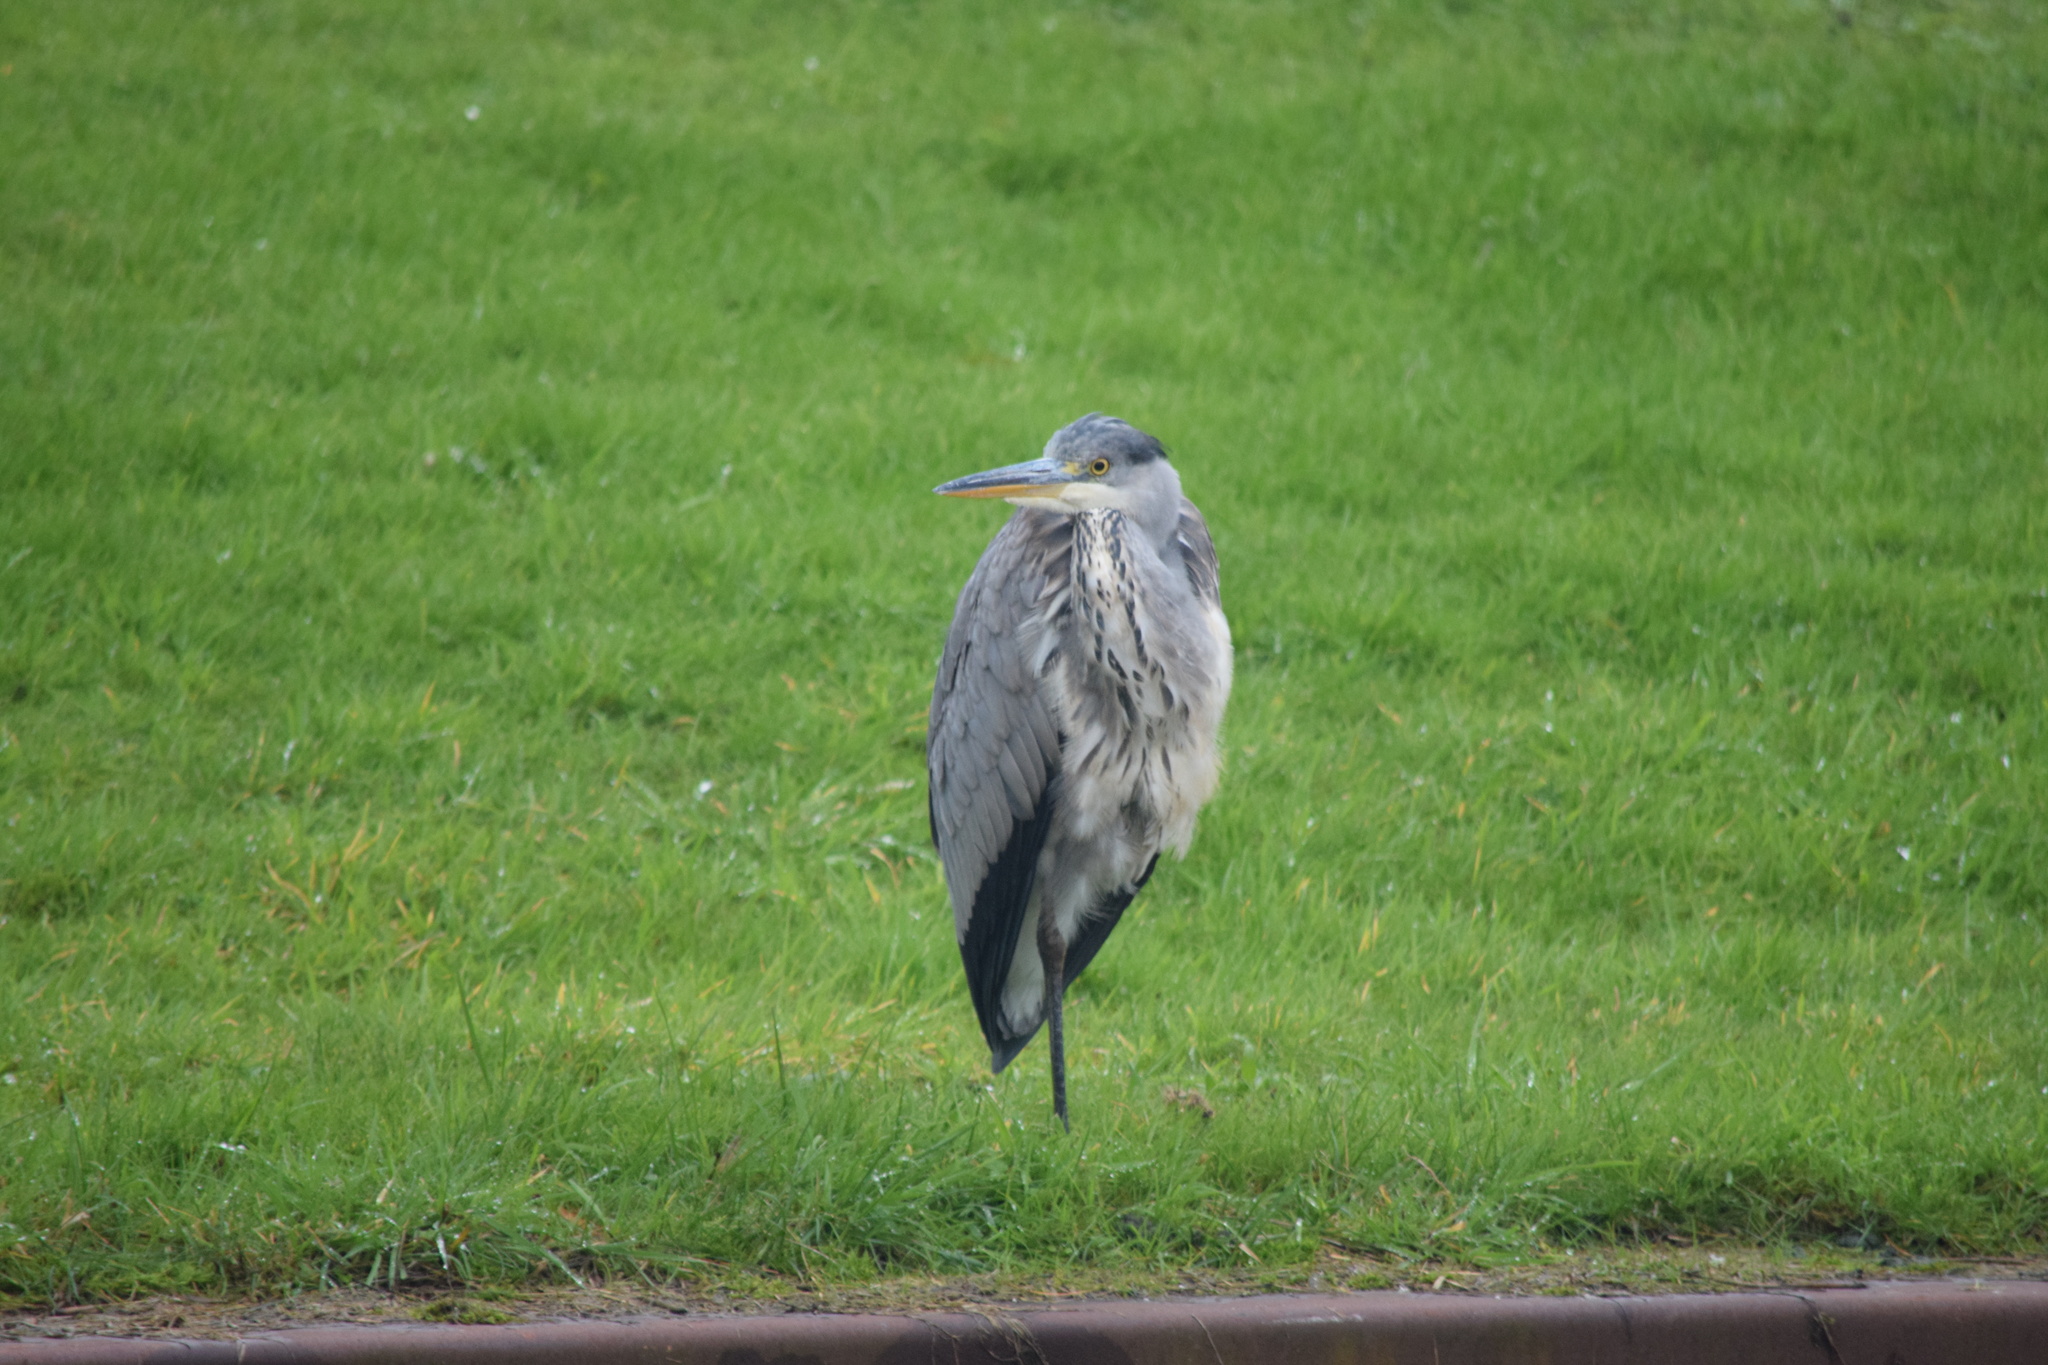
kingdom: Animalia
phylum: Chordata
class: Aves
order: Pelecaniformes
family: Ardeidae
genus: Ardea
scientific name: Ardea cinerea
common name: Grey heron
